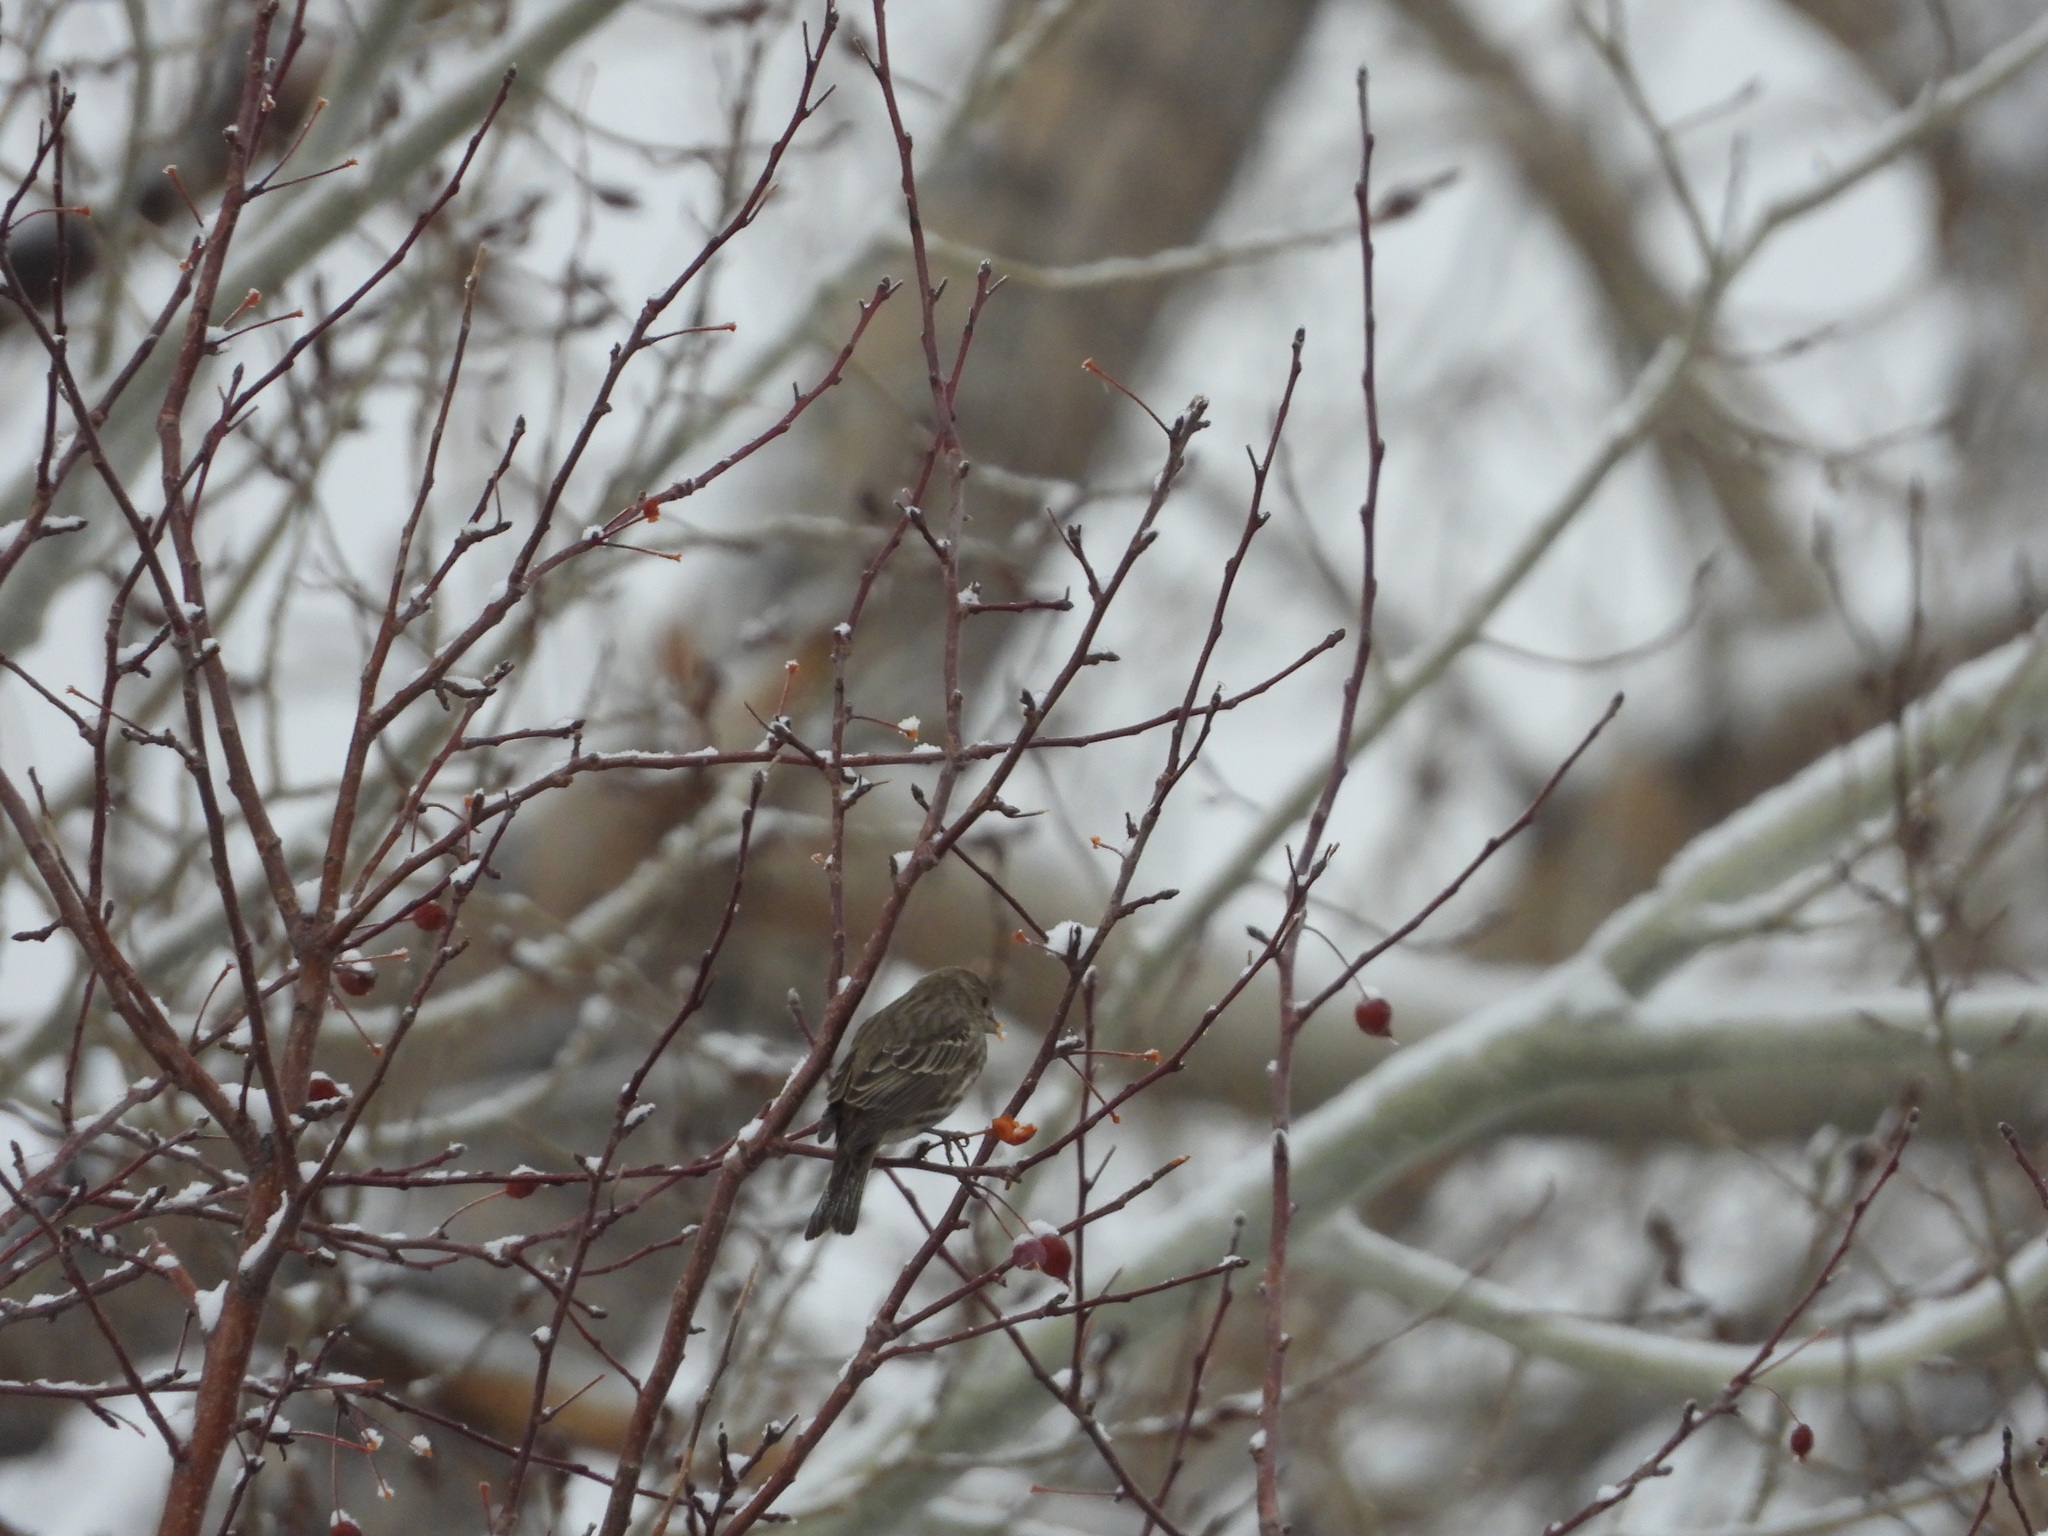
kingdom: Animalia
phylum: Chordata
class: Aves
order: Passeriformes
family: Fringillidae
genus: Haemorhous
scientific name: Haemorhous mexicanus
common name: House finch
